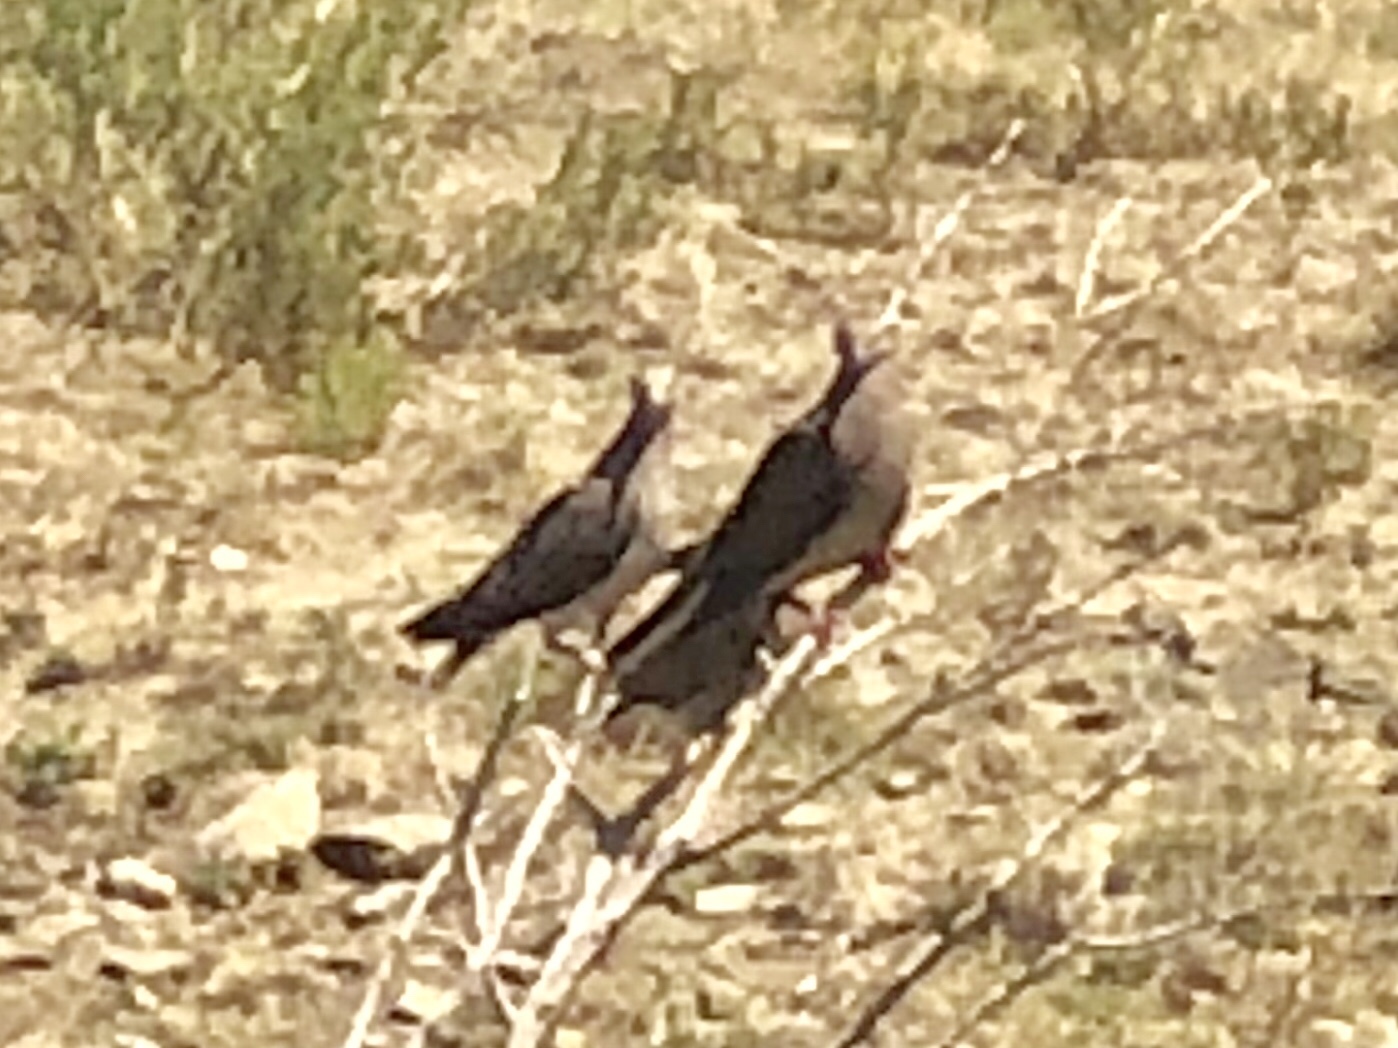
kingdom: Animalia
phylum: Chordata
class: Aves
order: Columbiformes
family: Columbidae
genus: Zenaida
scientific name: Zenaida macroura
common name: Mourning dove
